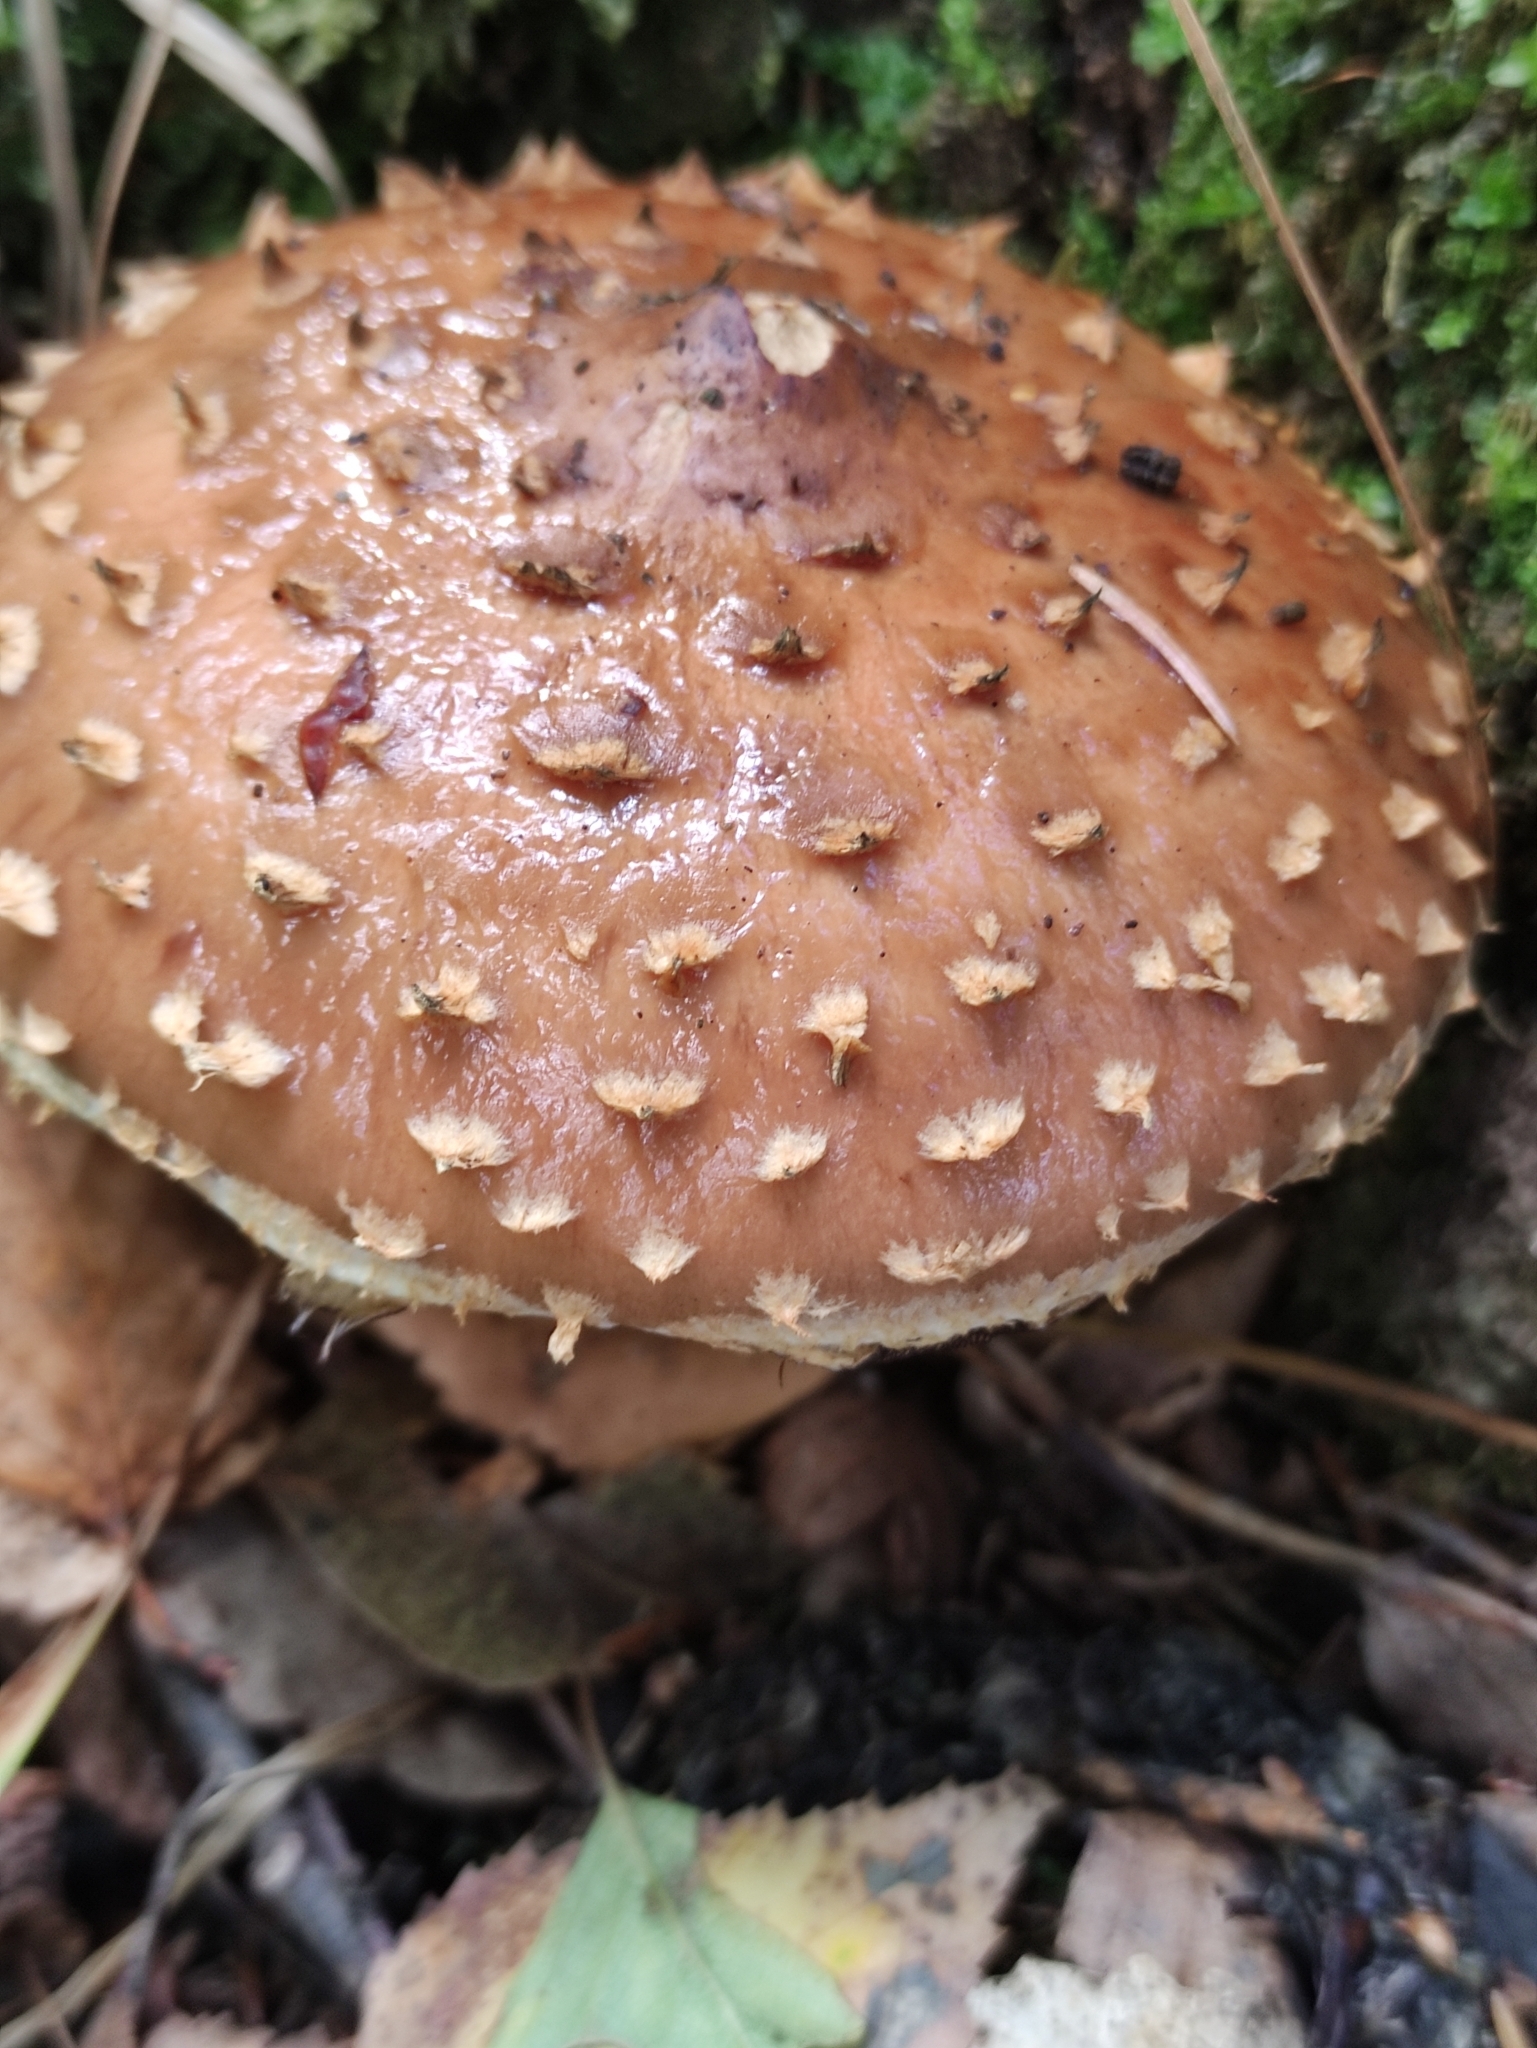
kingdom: Fungi
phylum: Basidiomycota
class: Agaricomycetes
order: Agaricales
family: Tubariaceae
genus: Hemistropharia
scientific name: Hemistropharia albocrenulata
